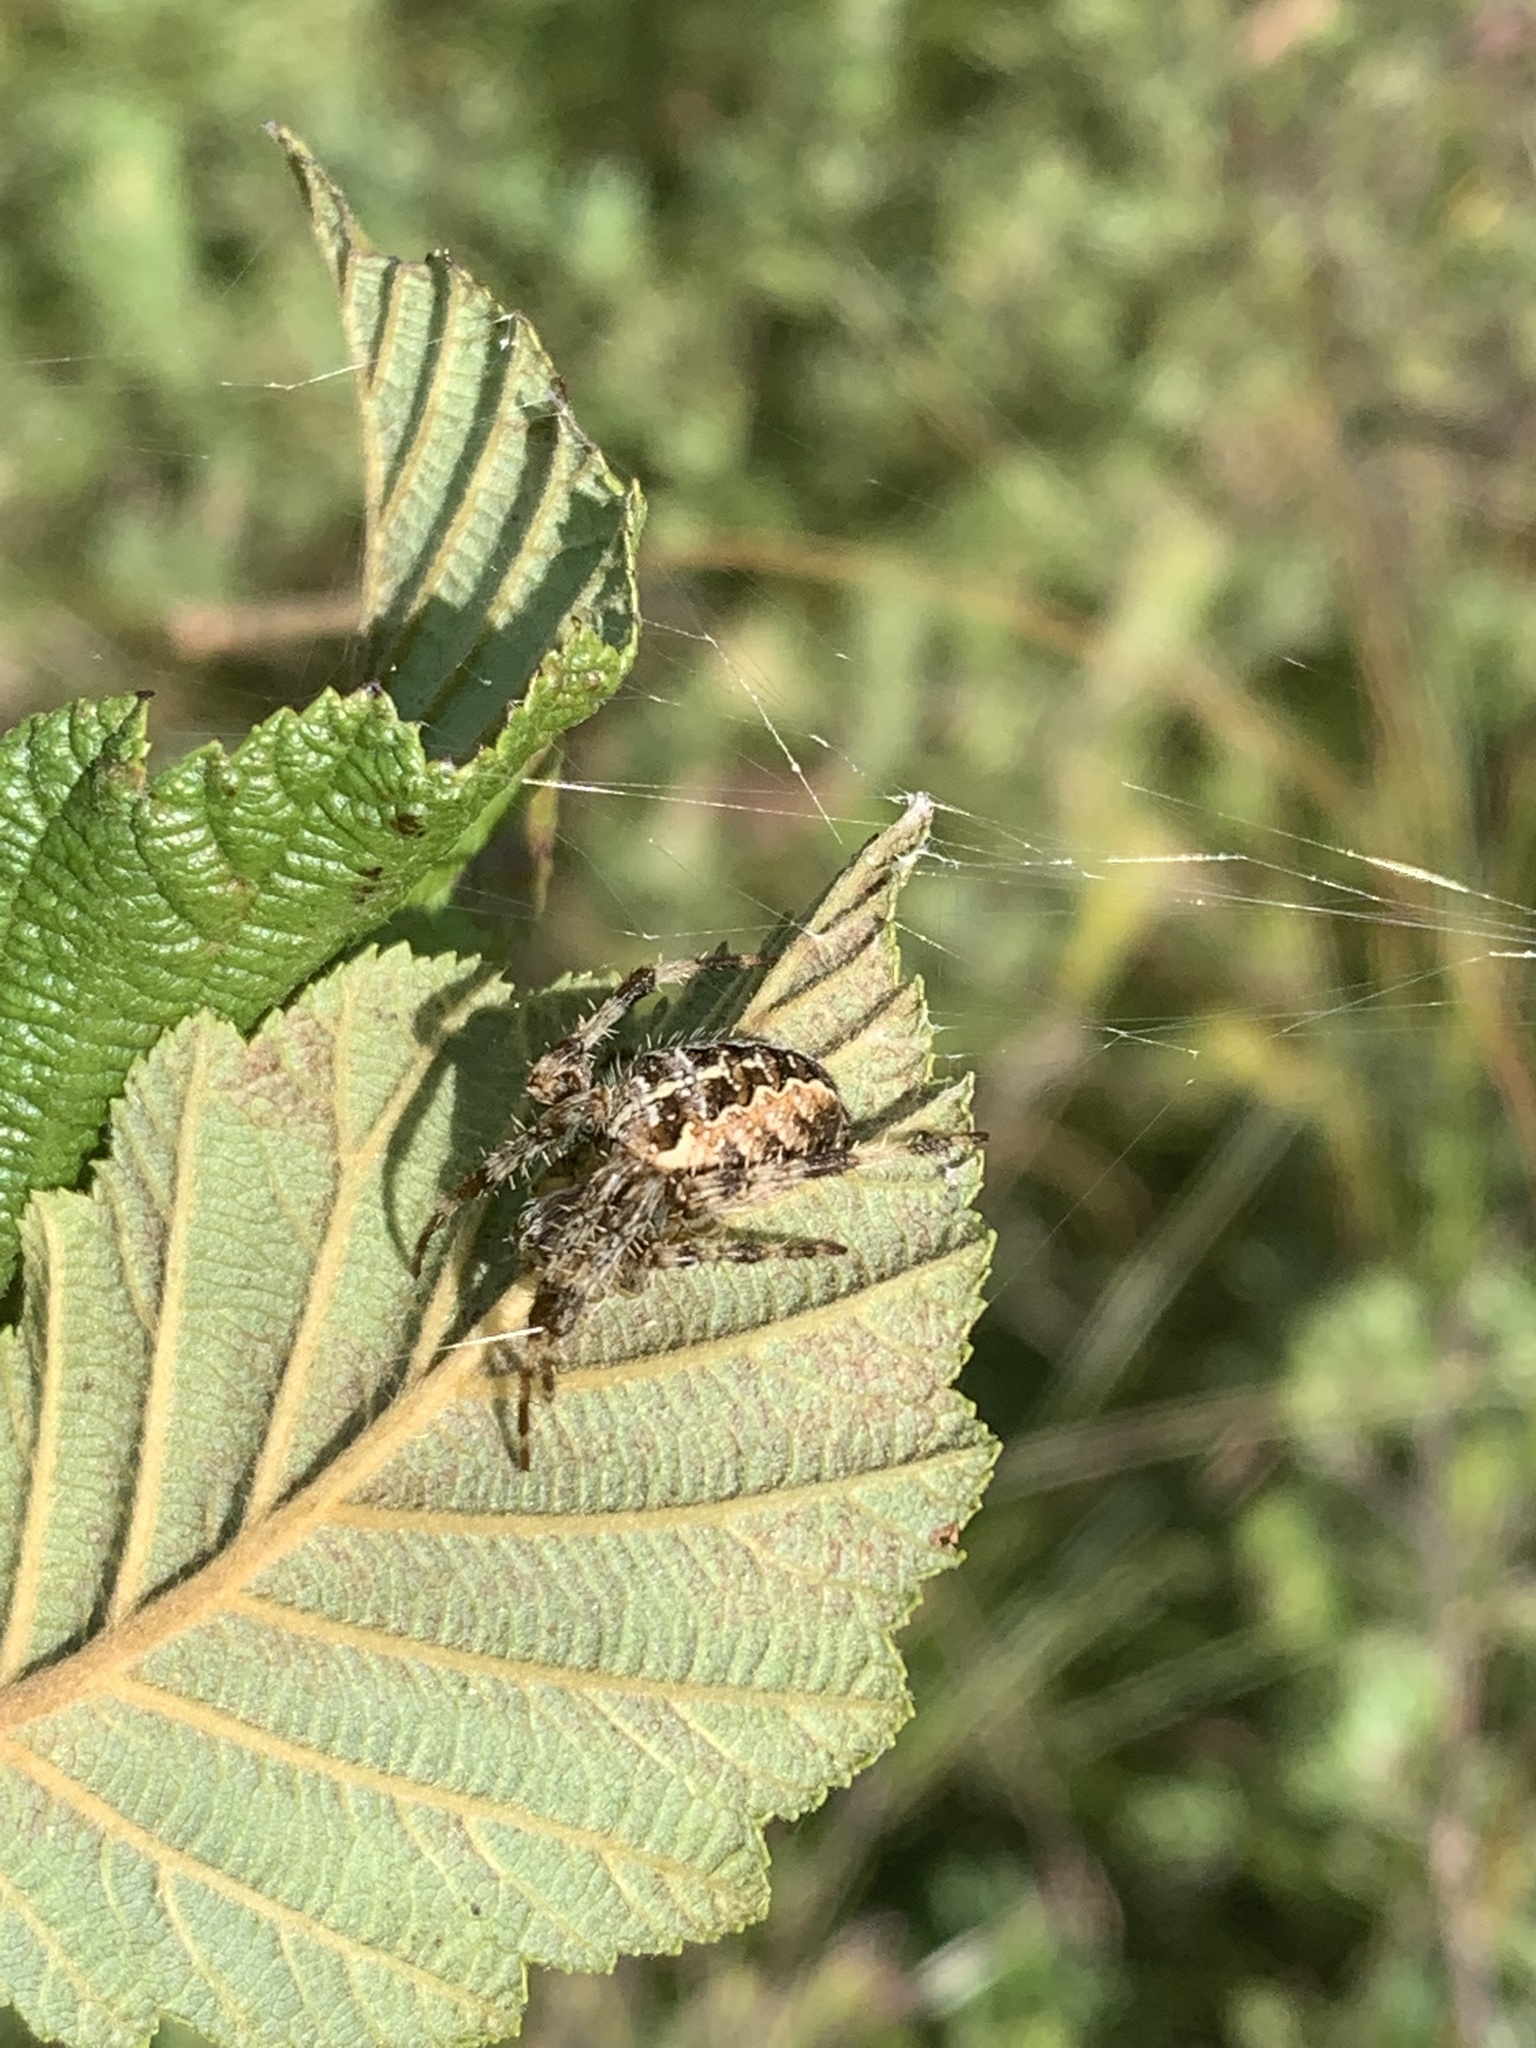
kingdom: Animalia
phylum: Arthropoda
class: Arachnida
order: Araneae
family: Araneidae
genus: Araneus
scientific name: Araneus diadematus
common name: Cross orbweaver
